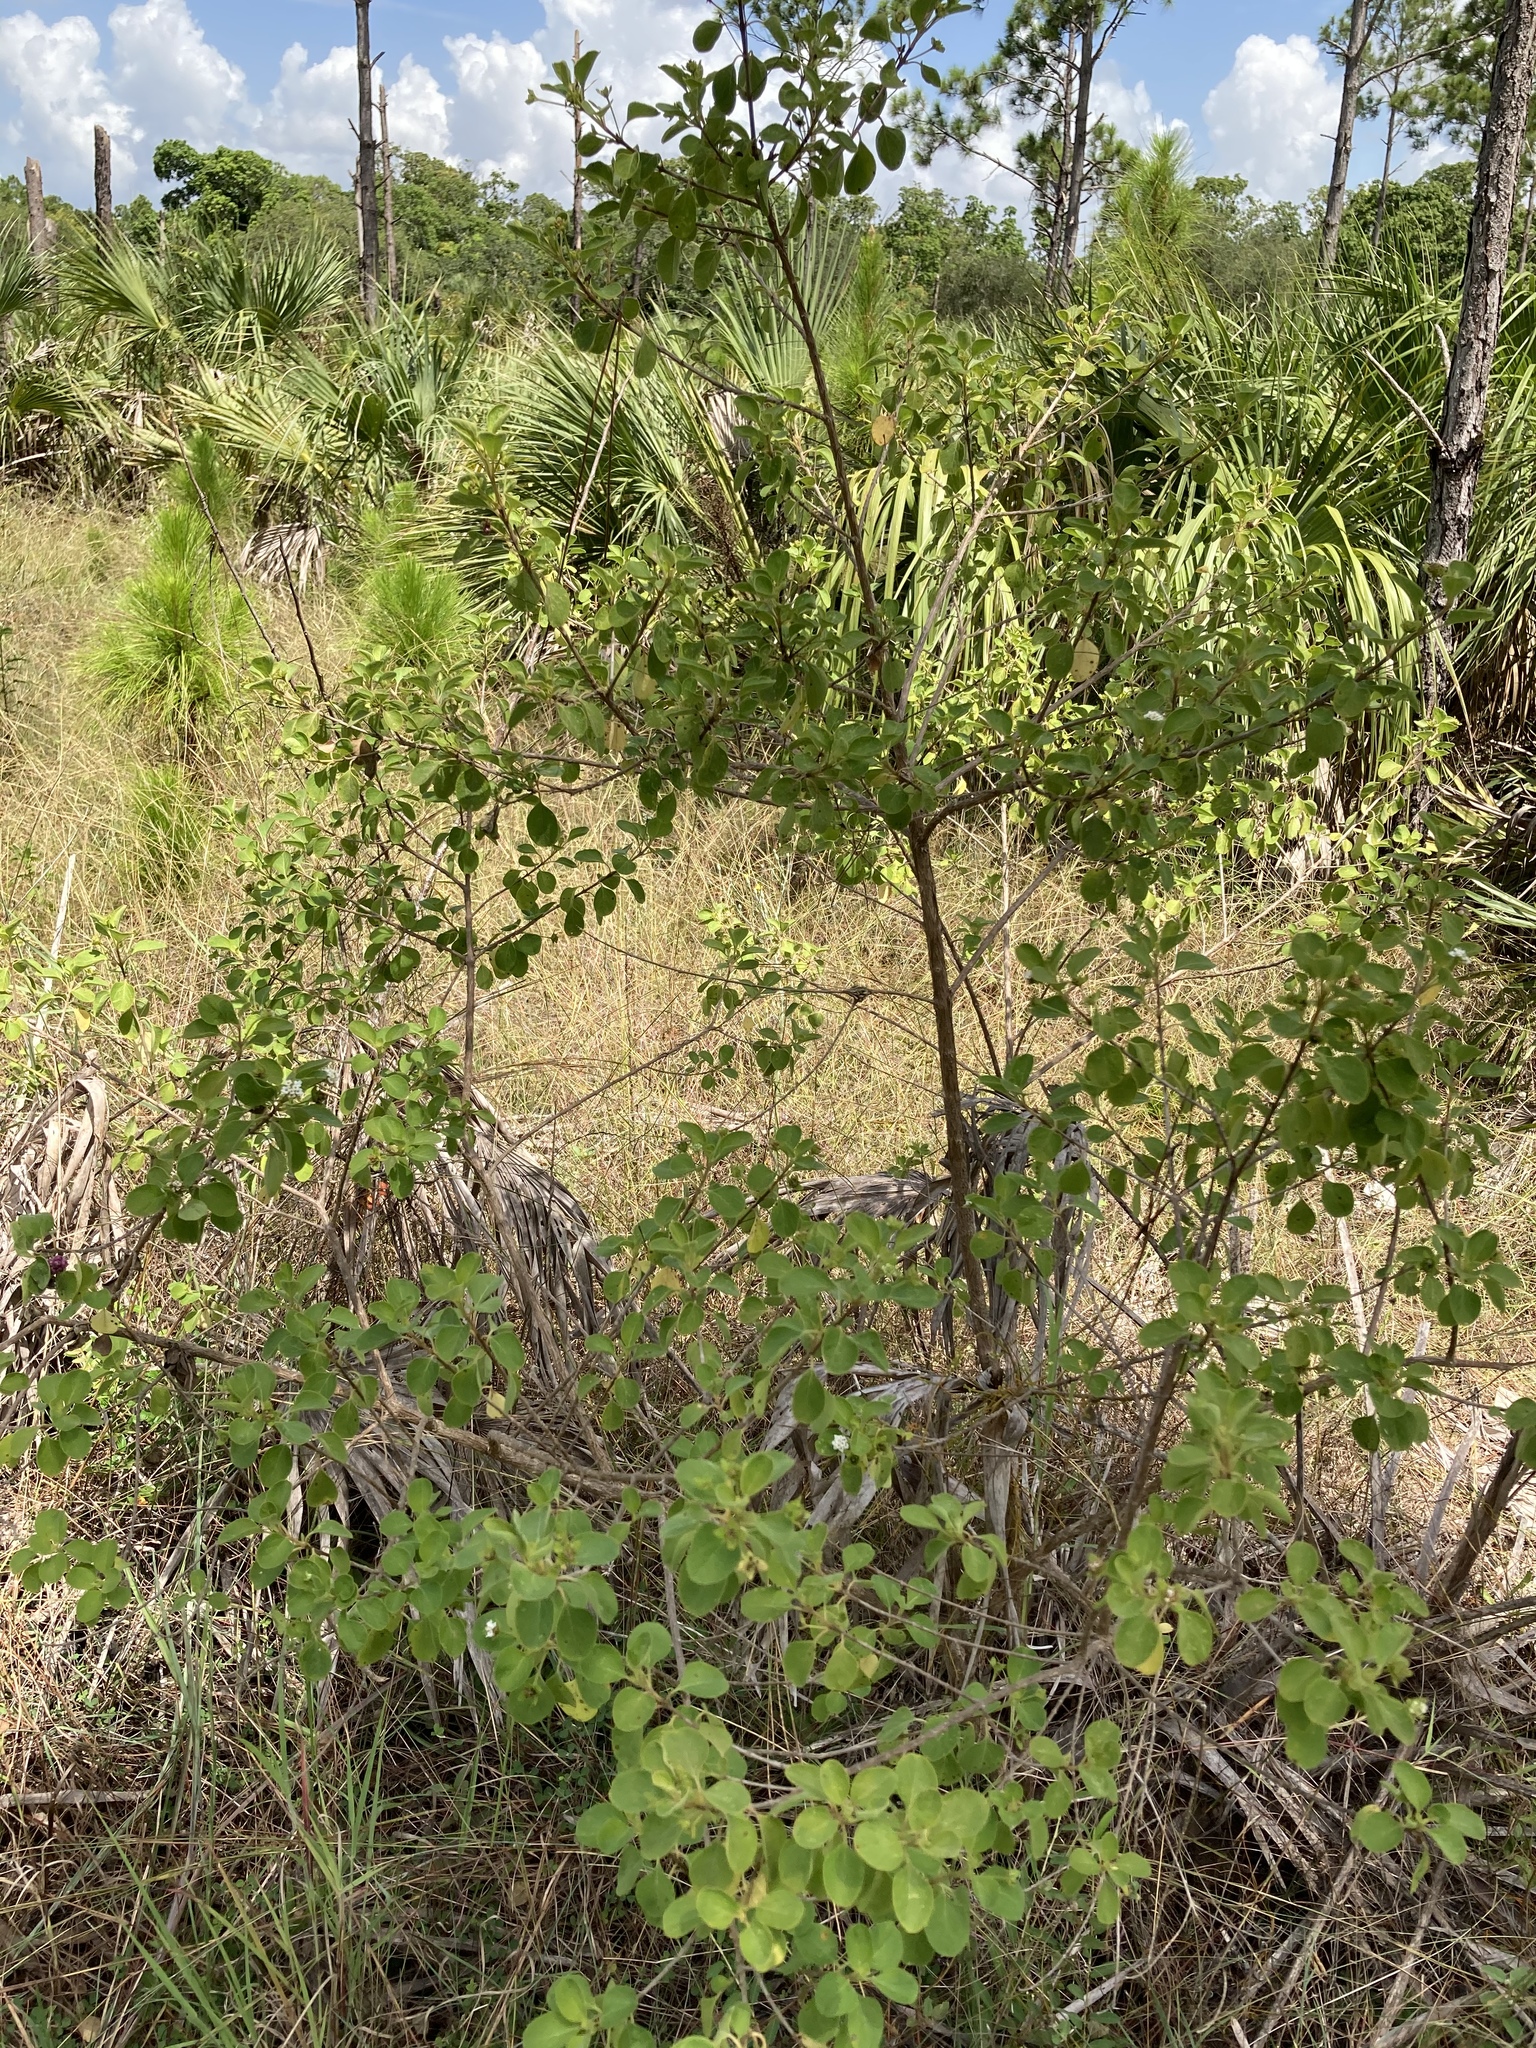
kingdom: Plantae
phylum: Tracheophyta
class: Magnoliopsida
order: Lamiales
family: Verbenaceae
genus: Lantana
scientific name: Lantana involucrata
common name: Black sage
